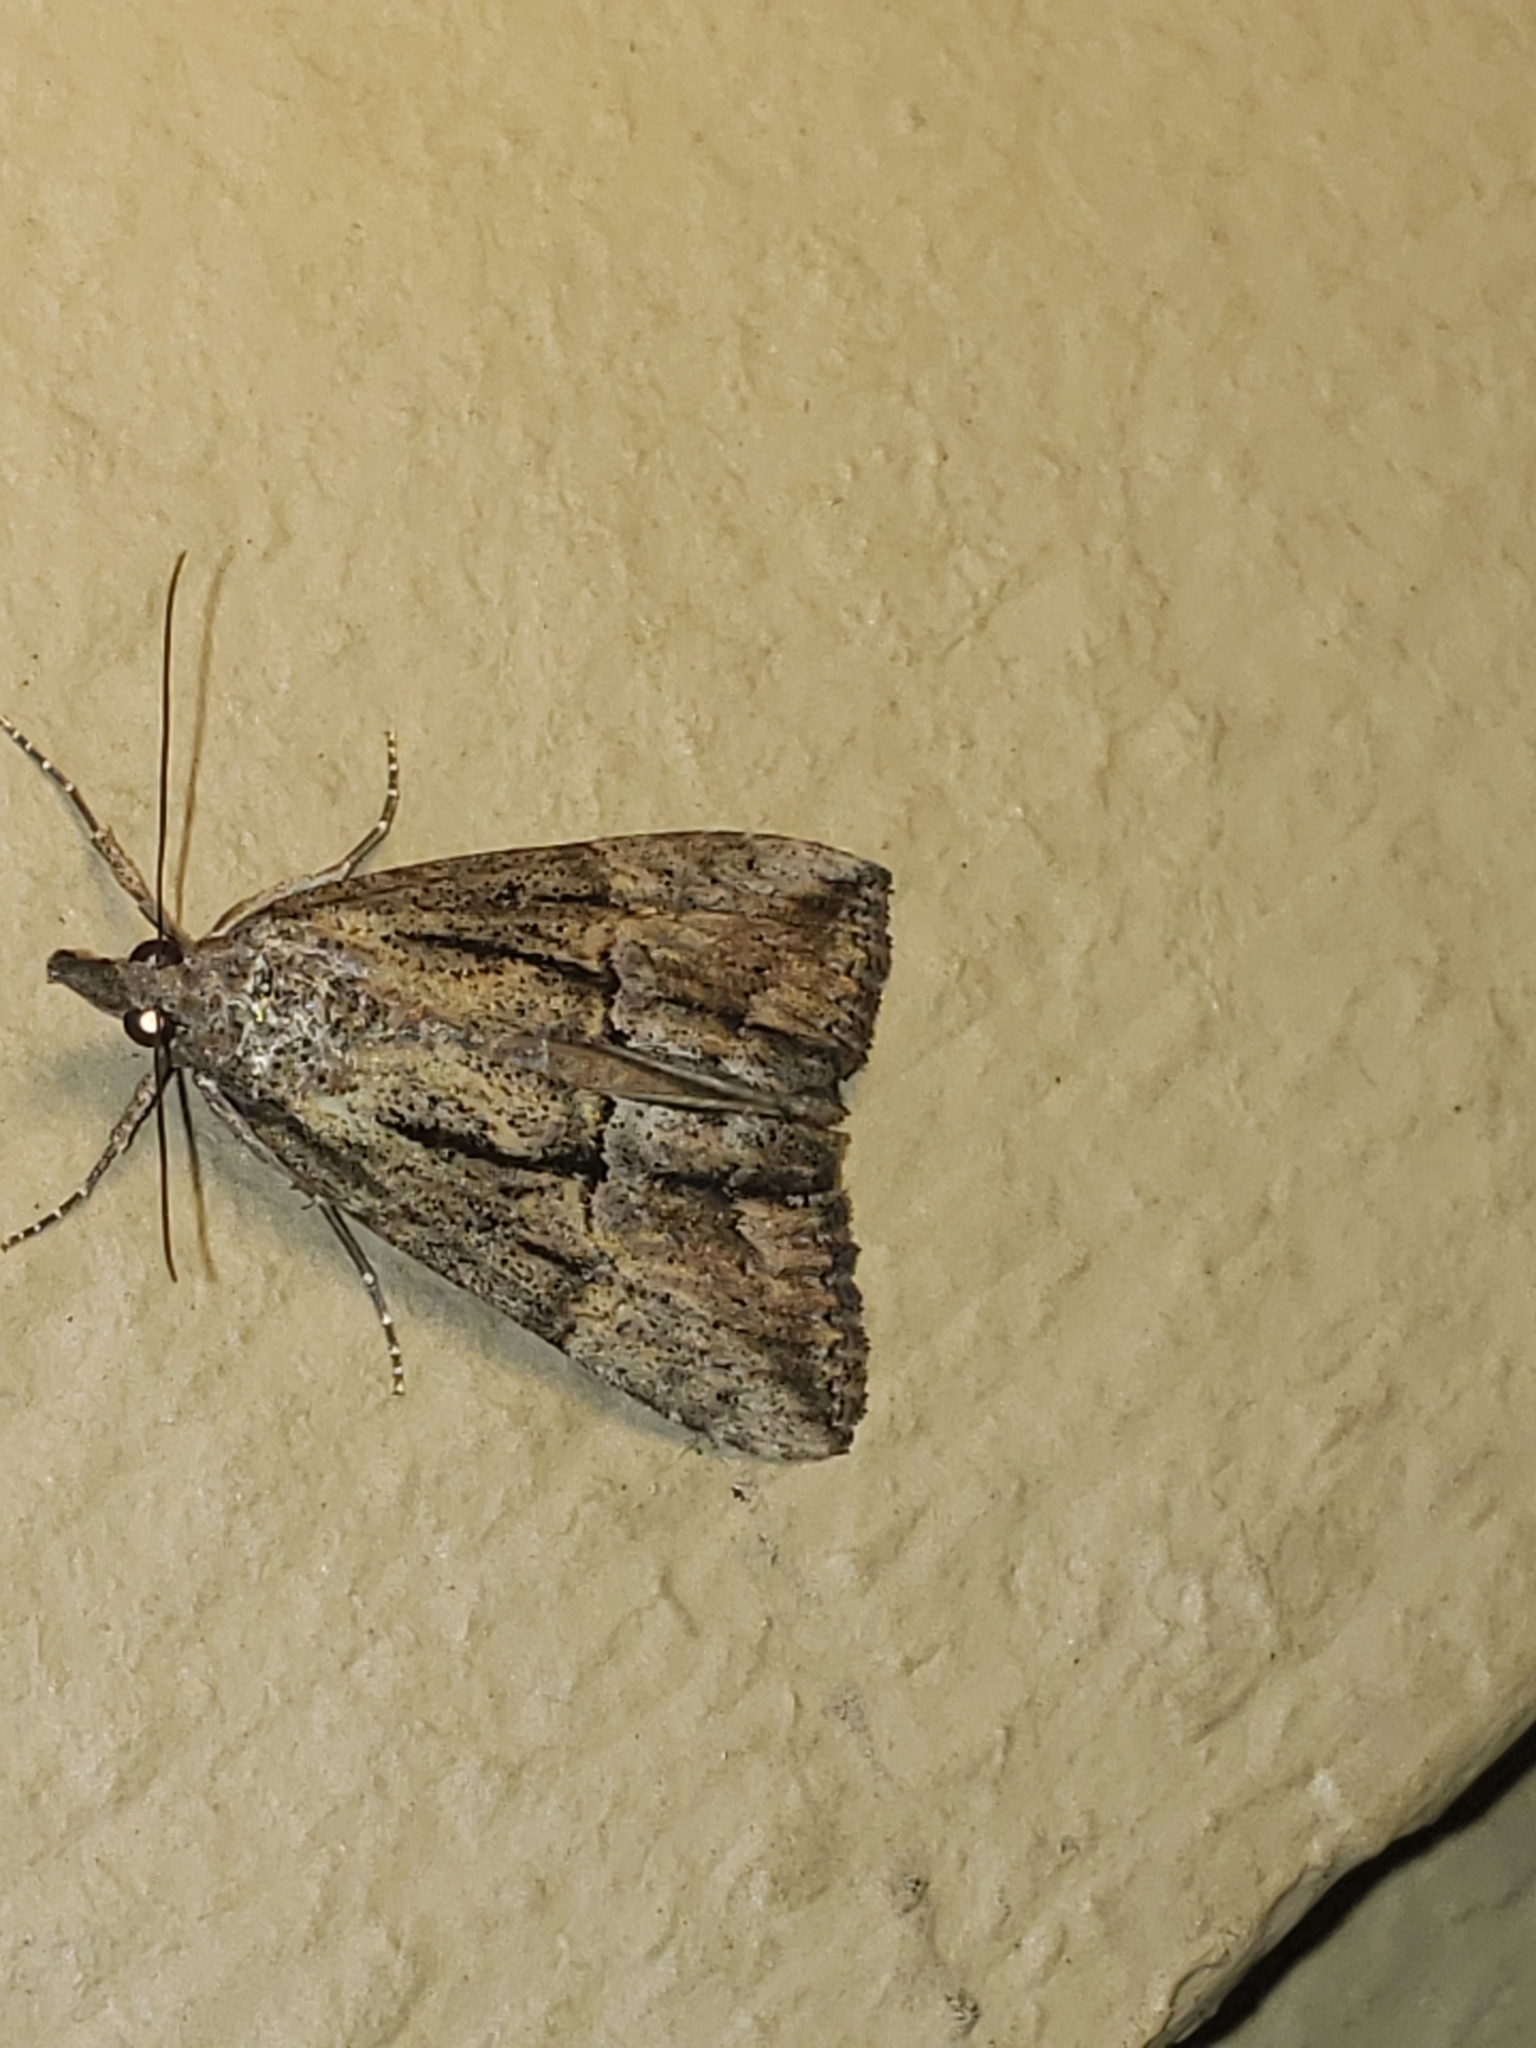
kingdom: Animalia
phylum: Arthropoda
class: Insecta
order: Lepidoptera
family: Erebidae
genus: Hypena
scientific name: Hypena scabra
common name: Green cloverworm
